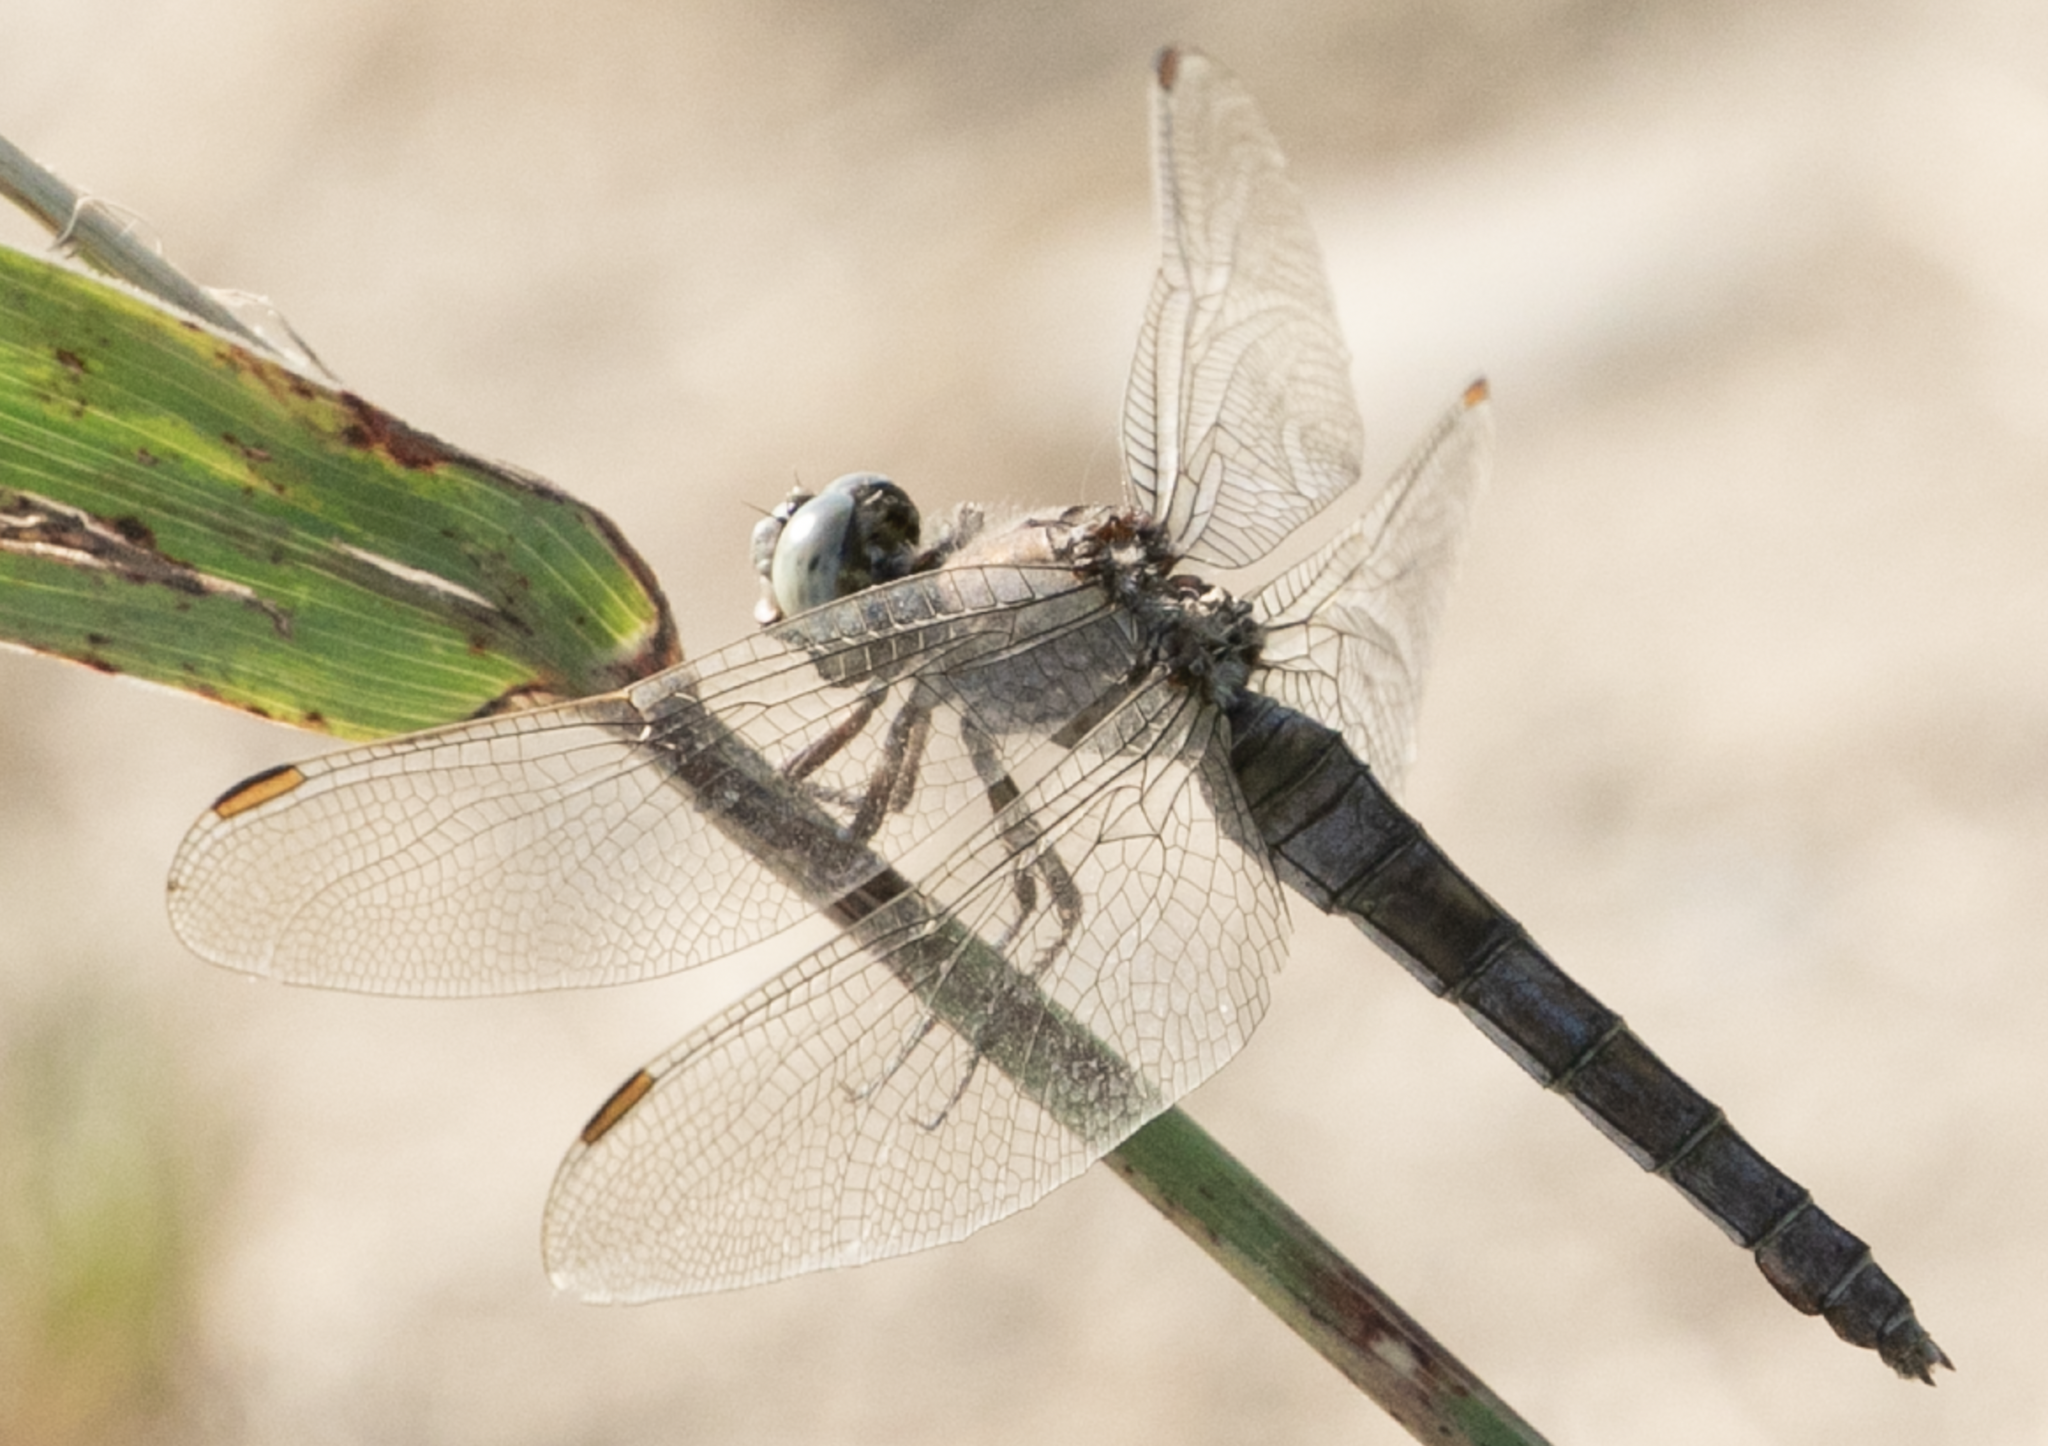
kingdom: Animalia
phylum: Arthropoda
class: Insecta
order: Odonata
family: Libellulidae
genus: Orthetrum
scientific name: Orthetrum brunneum
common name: Southern skimmer
